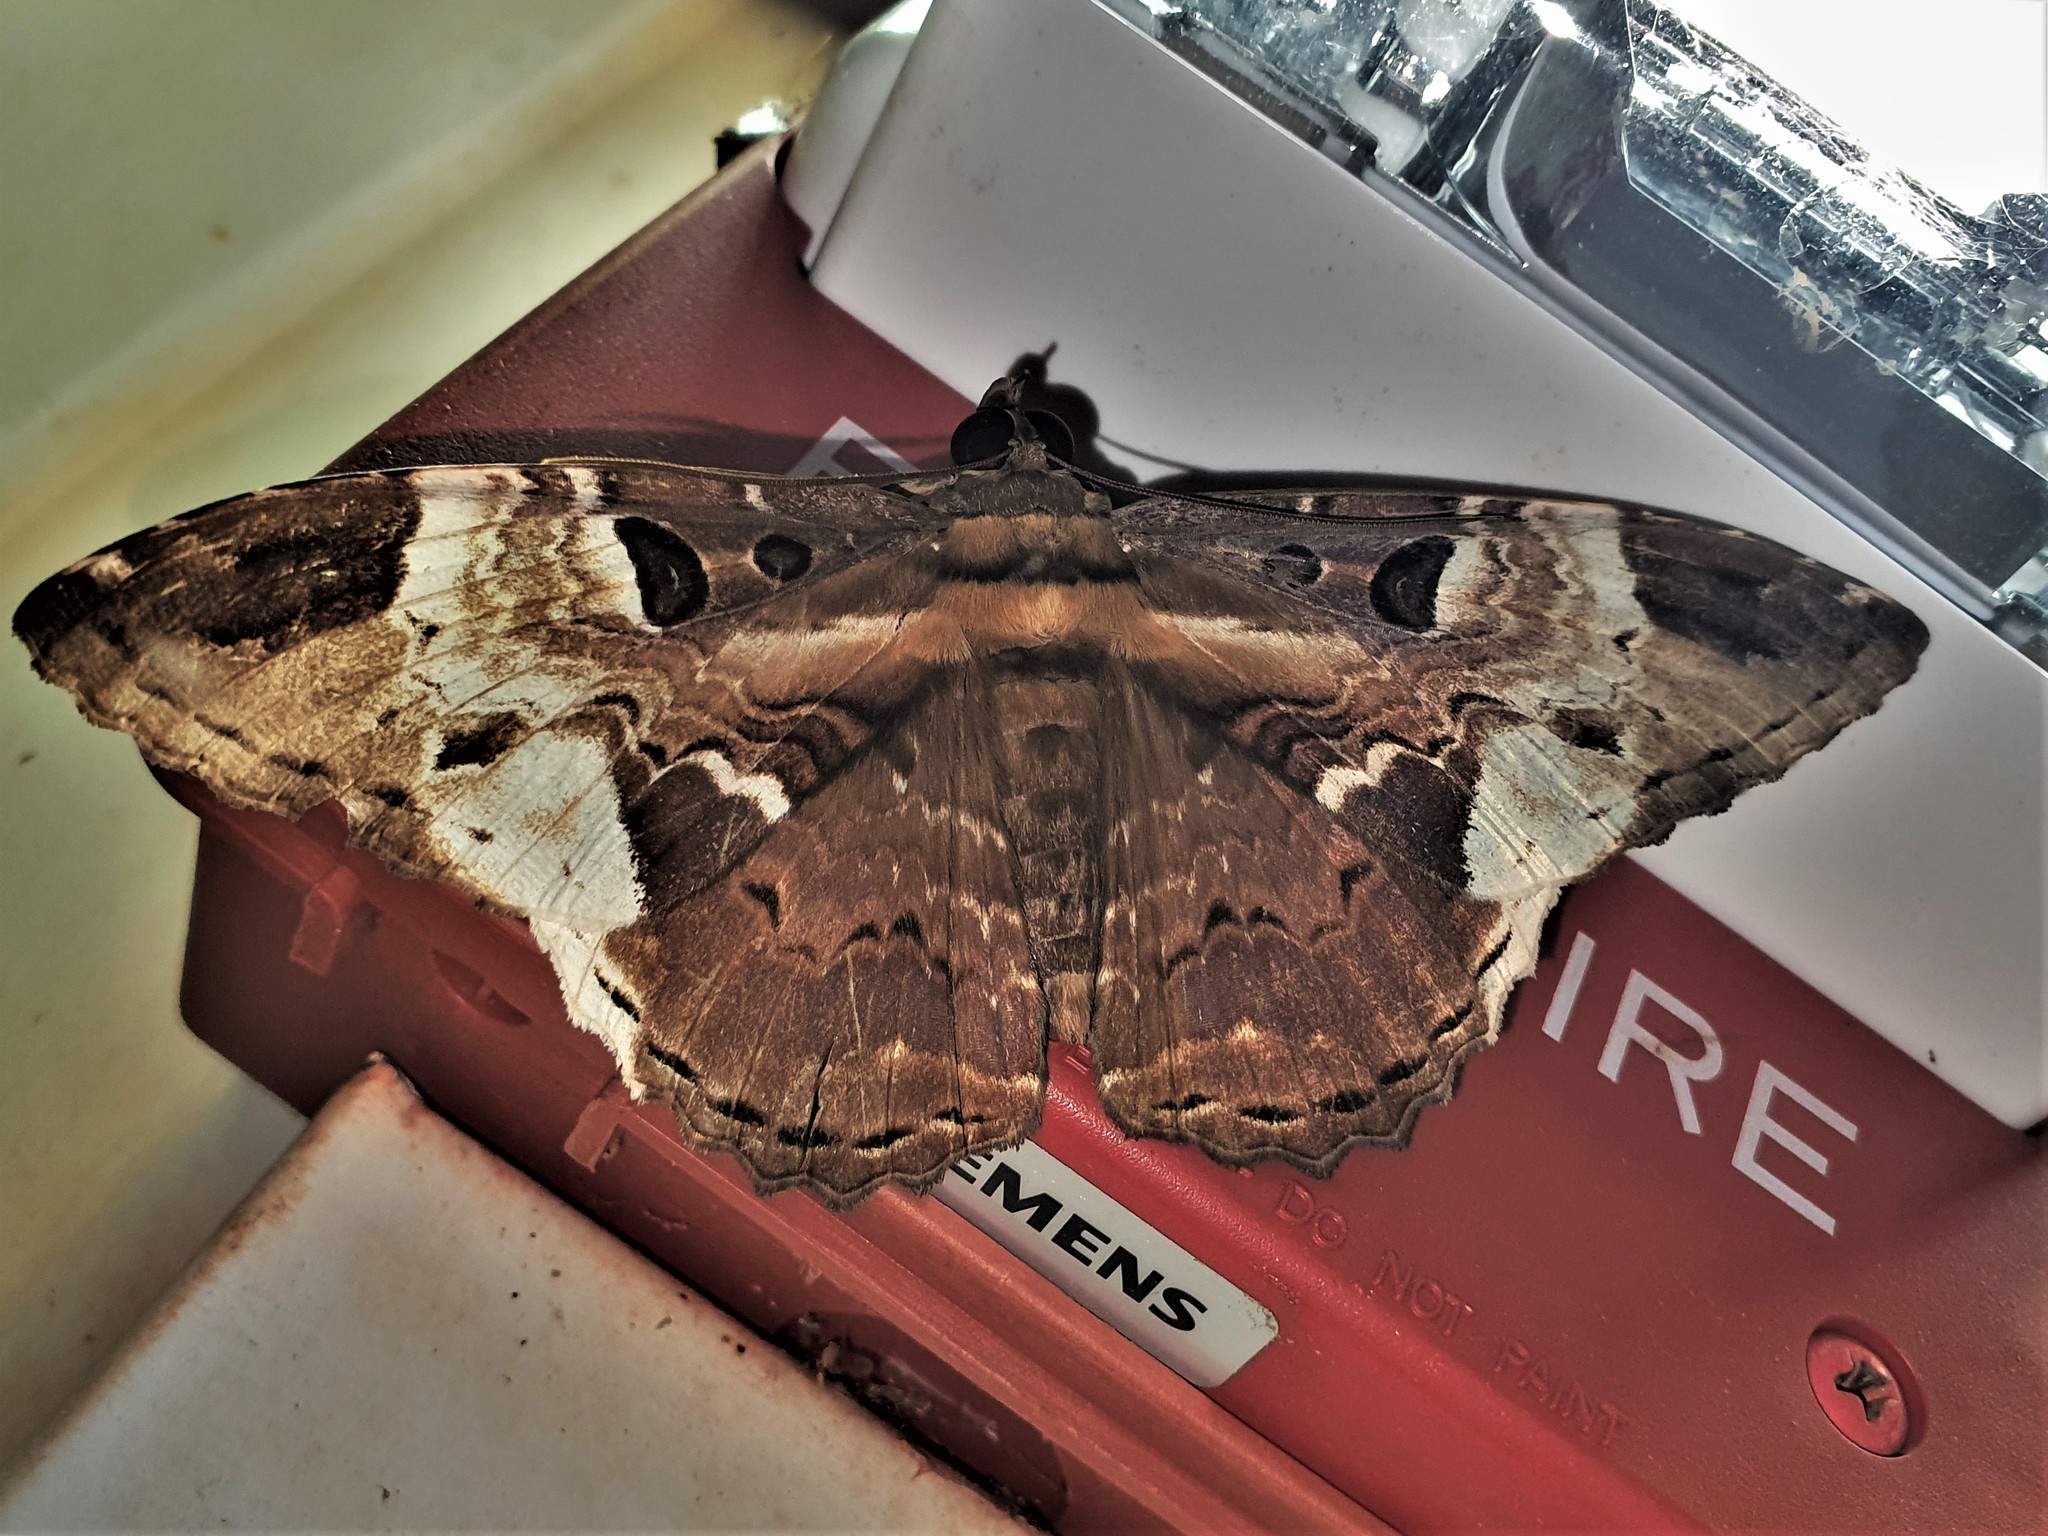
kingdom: Animalia
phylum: Arthropoda
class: Insecta
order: Lepidoptera
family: Erebidae
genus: Feigeria
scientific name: Feigeria herilia
